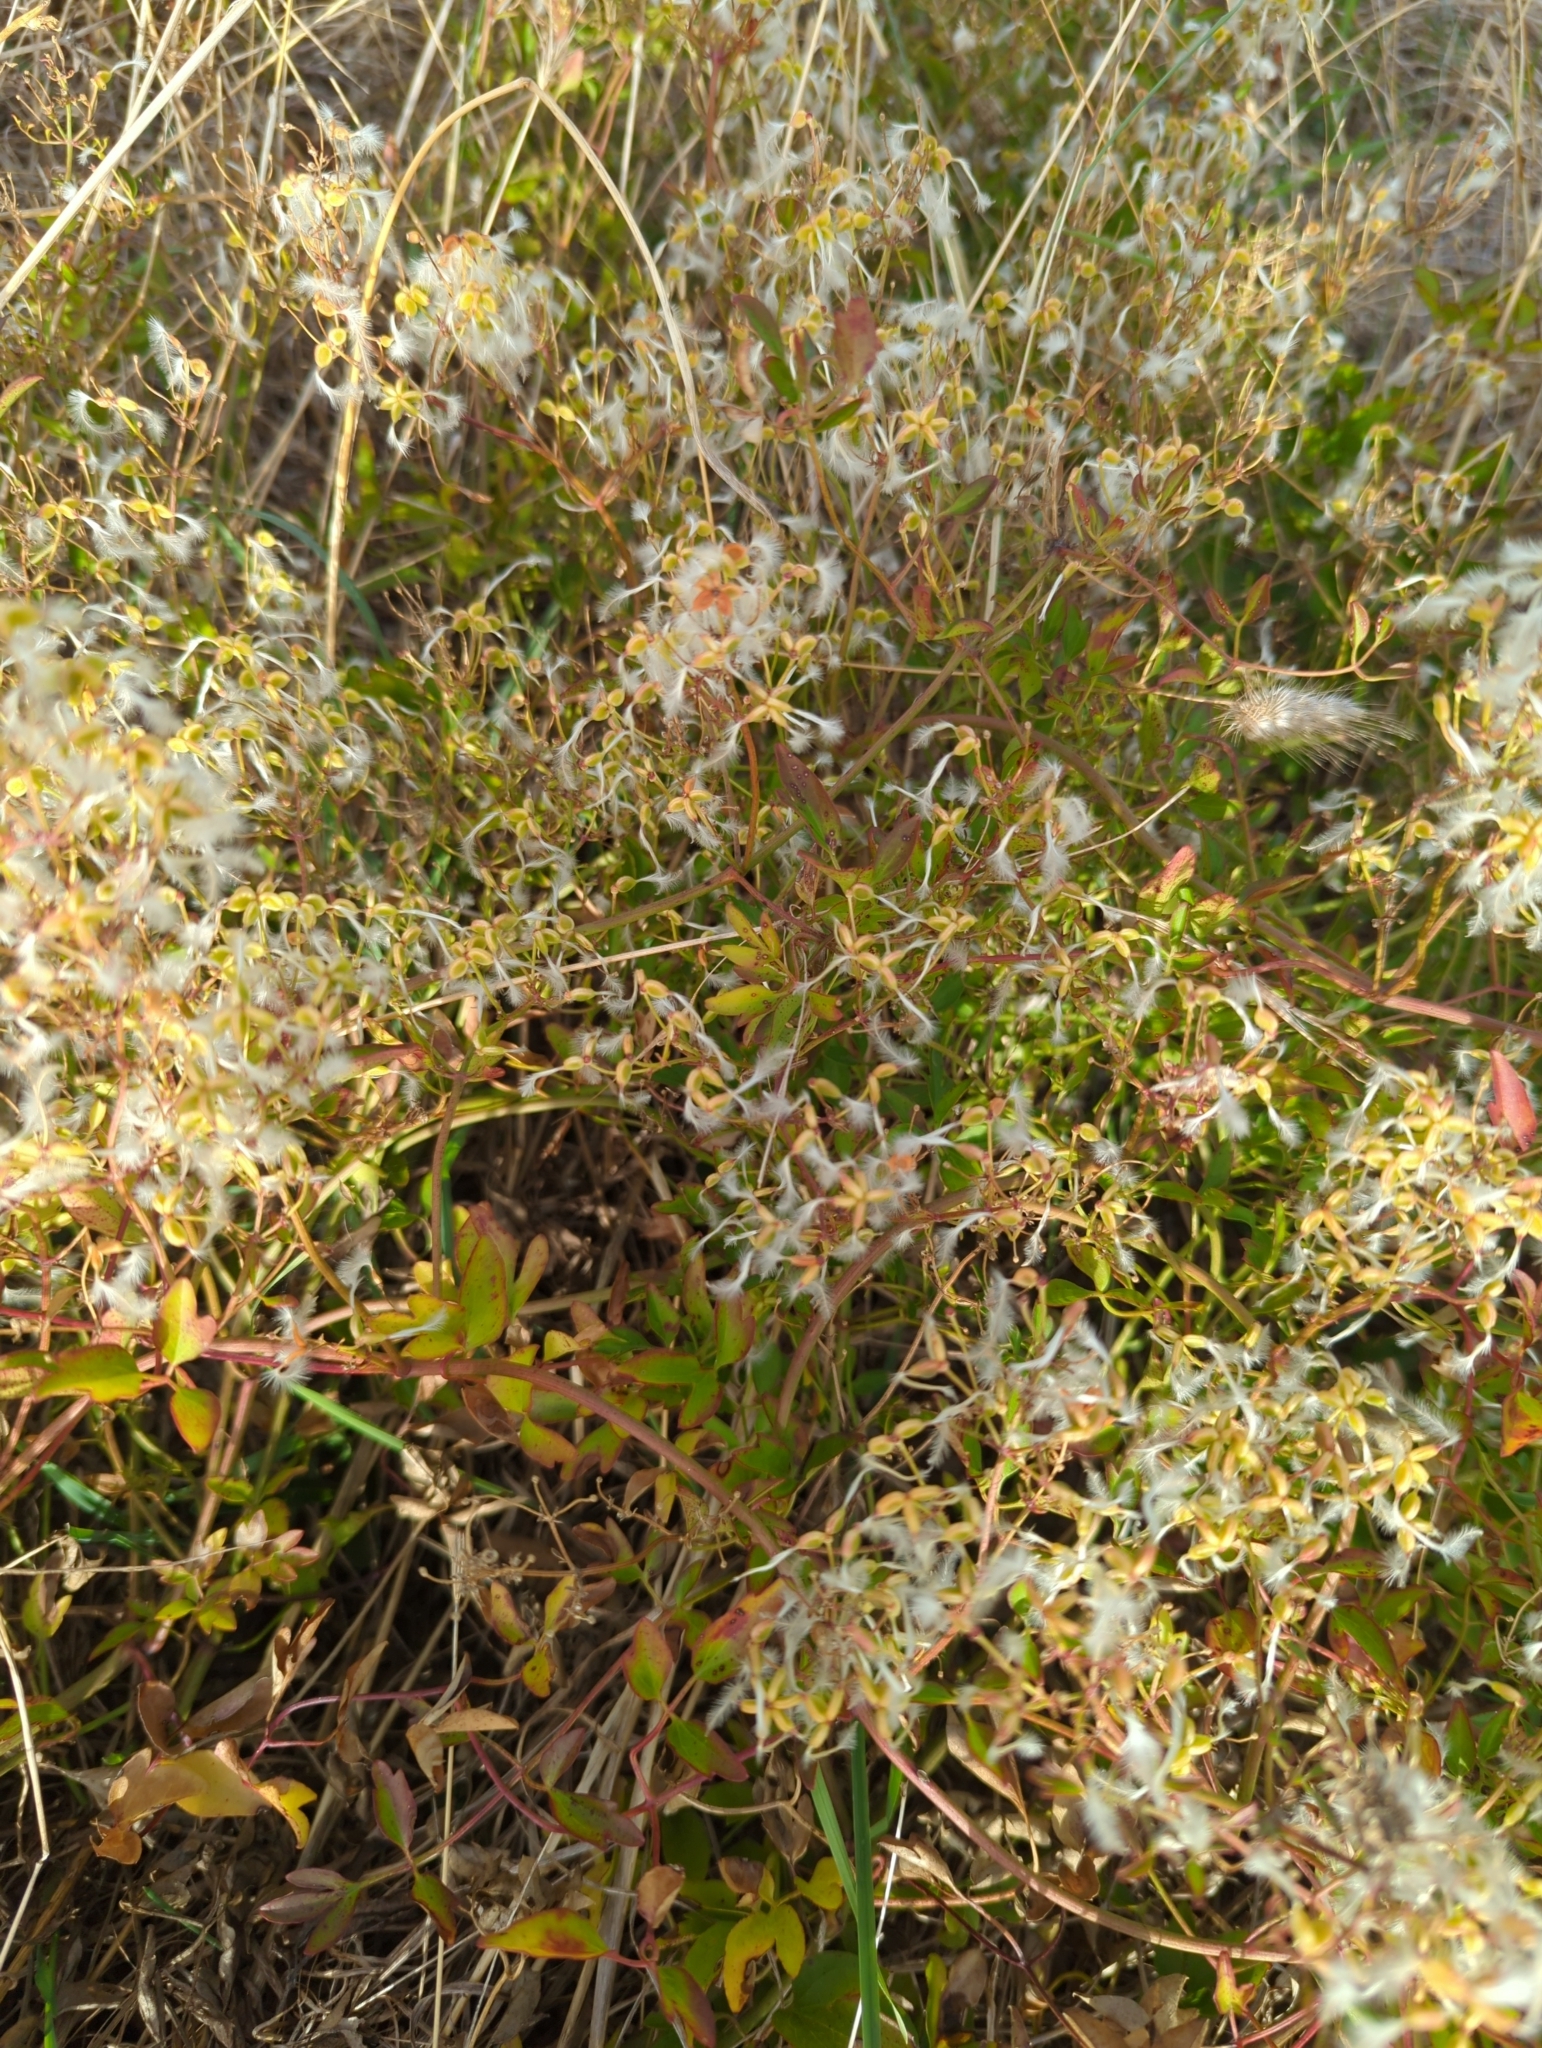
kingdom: Plantae
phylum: Tracheophyta
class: Magnoliopsida
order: Ranunculales
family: Ranunculaceae
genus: Clematis
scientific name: Clematis flammula
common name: Virgin's-bower
